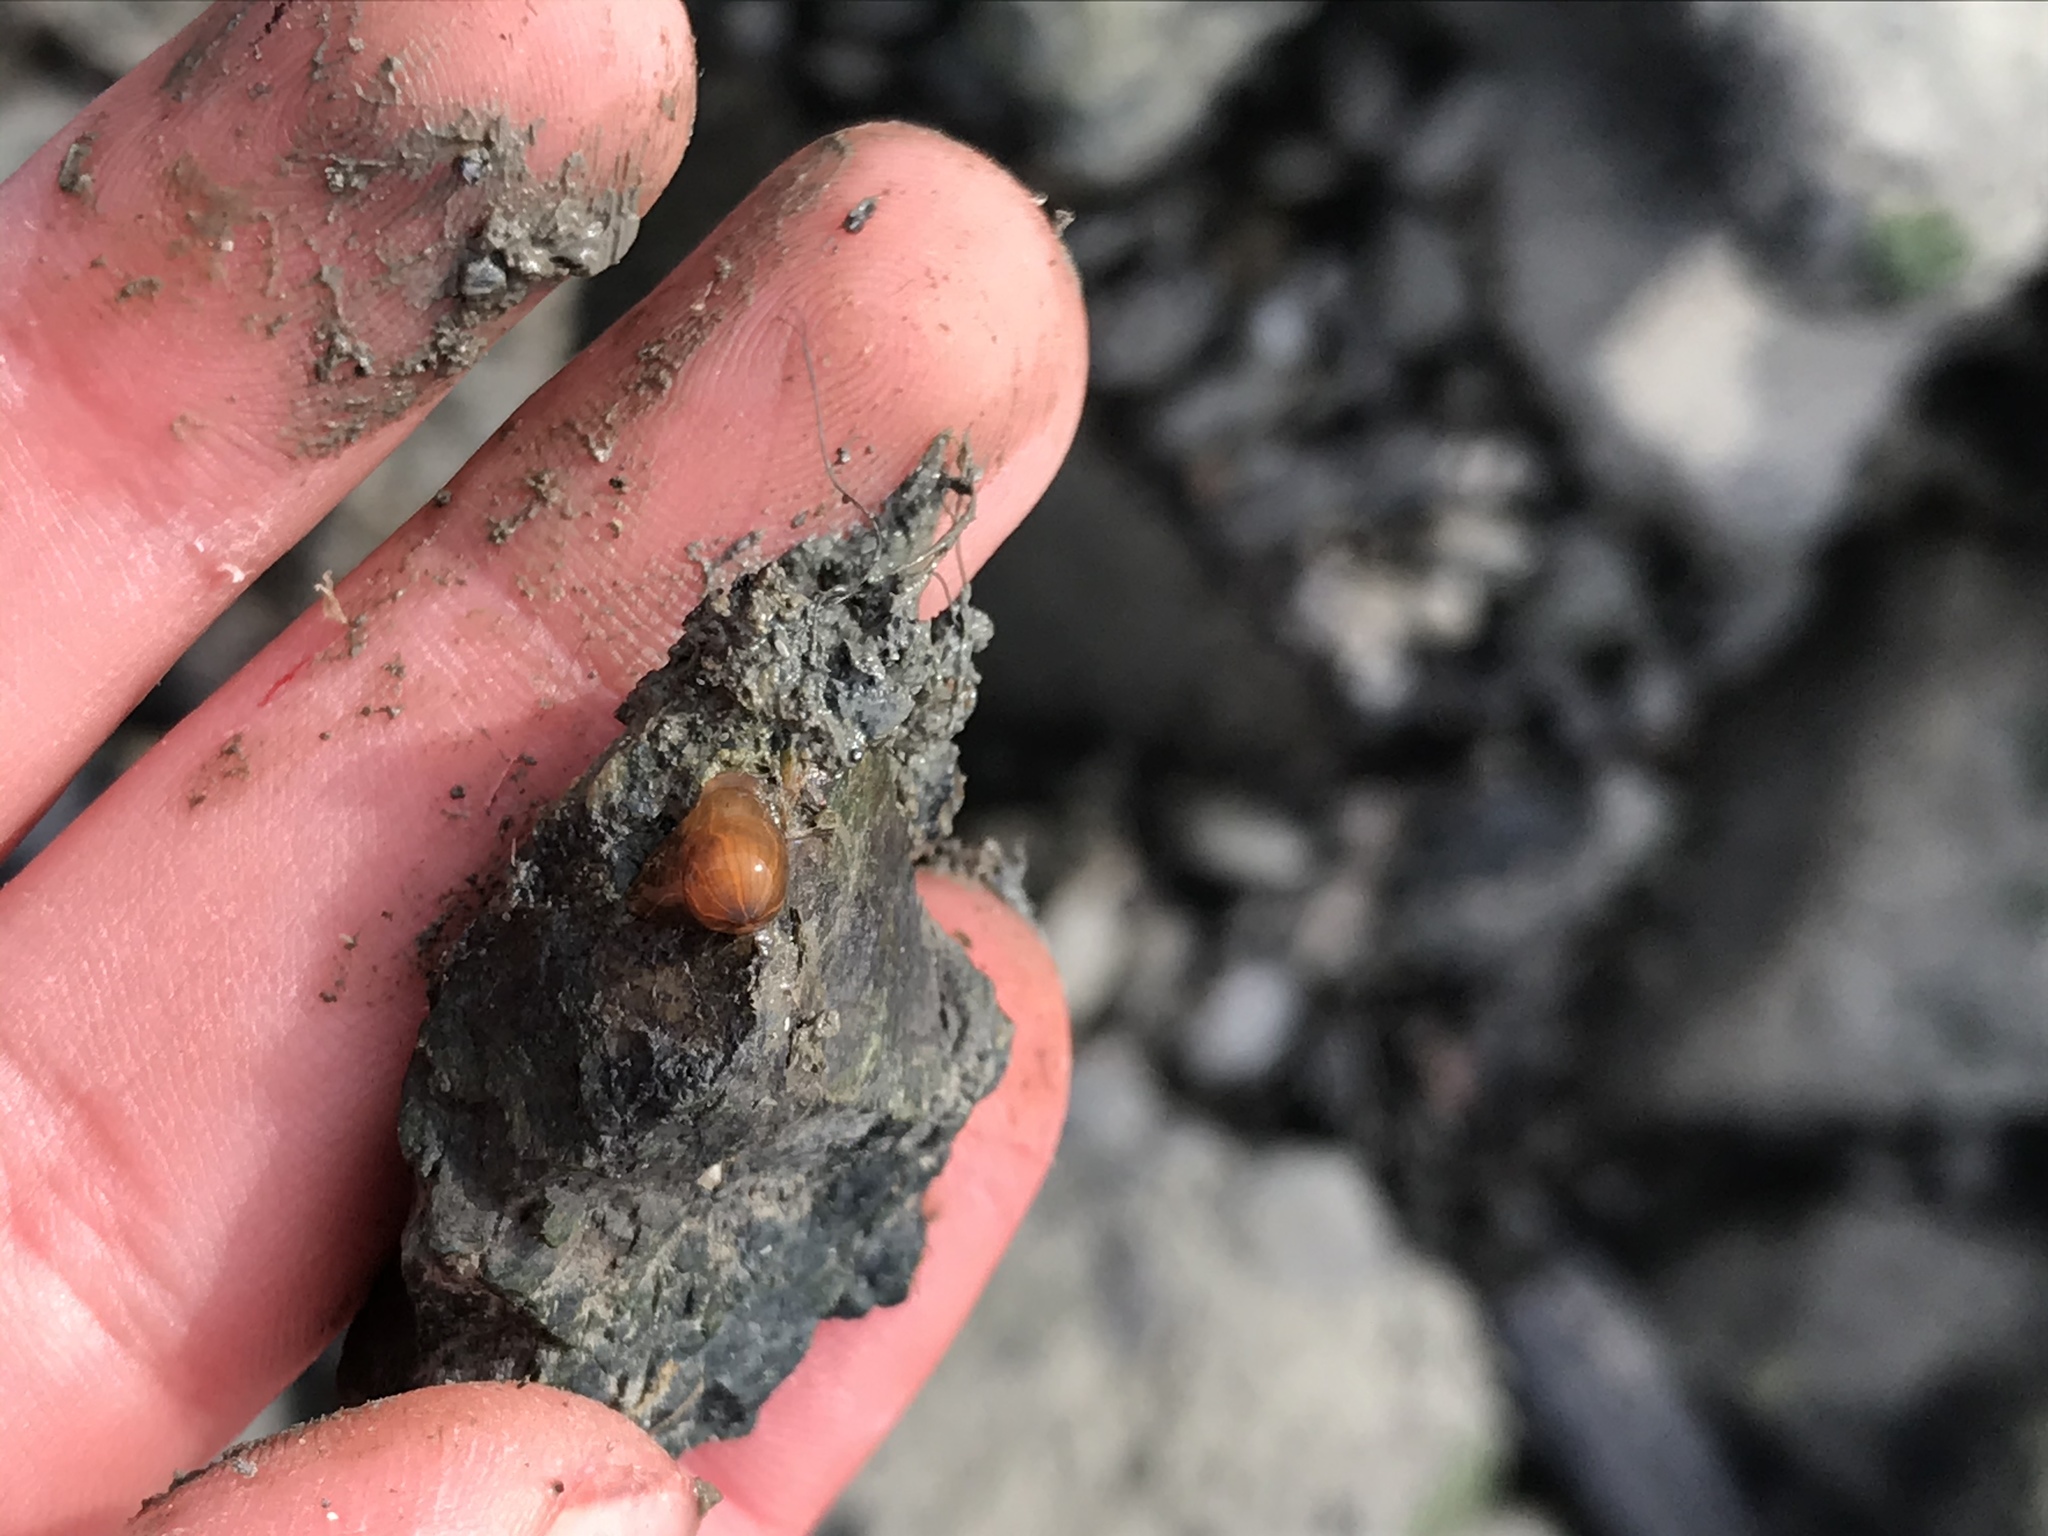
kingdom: Animalia
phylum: Cnidaria
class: Anthozoa
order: Actiniaria
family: Diadumenidae
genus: Diadumene
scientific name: Diadumene lineata
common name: Orange-striped anemone
